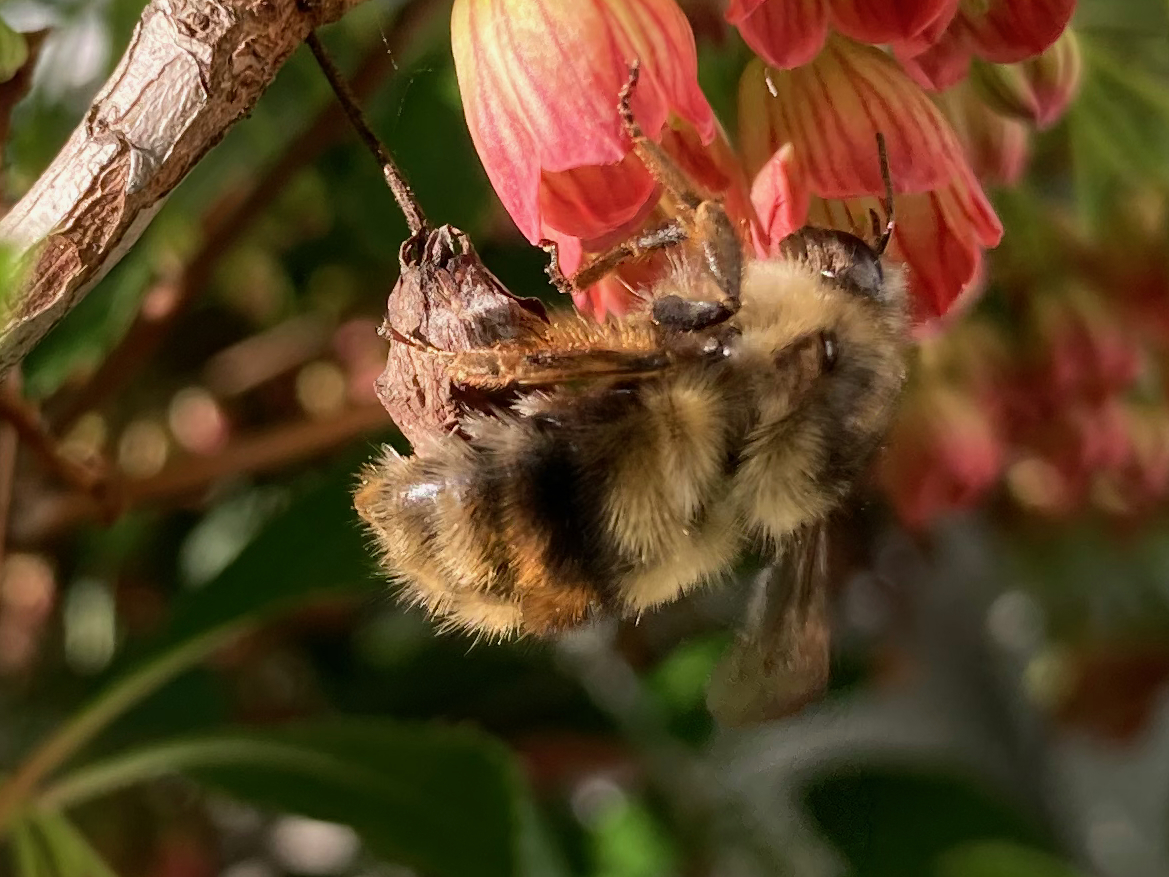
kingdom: Animalia
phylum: Arthropoda
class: Insecta
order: Hymenoptera
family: Apidae
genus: Bombus
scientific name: Bombus mixtus
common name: Fuzzy-horned bumble bee
